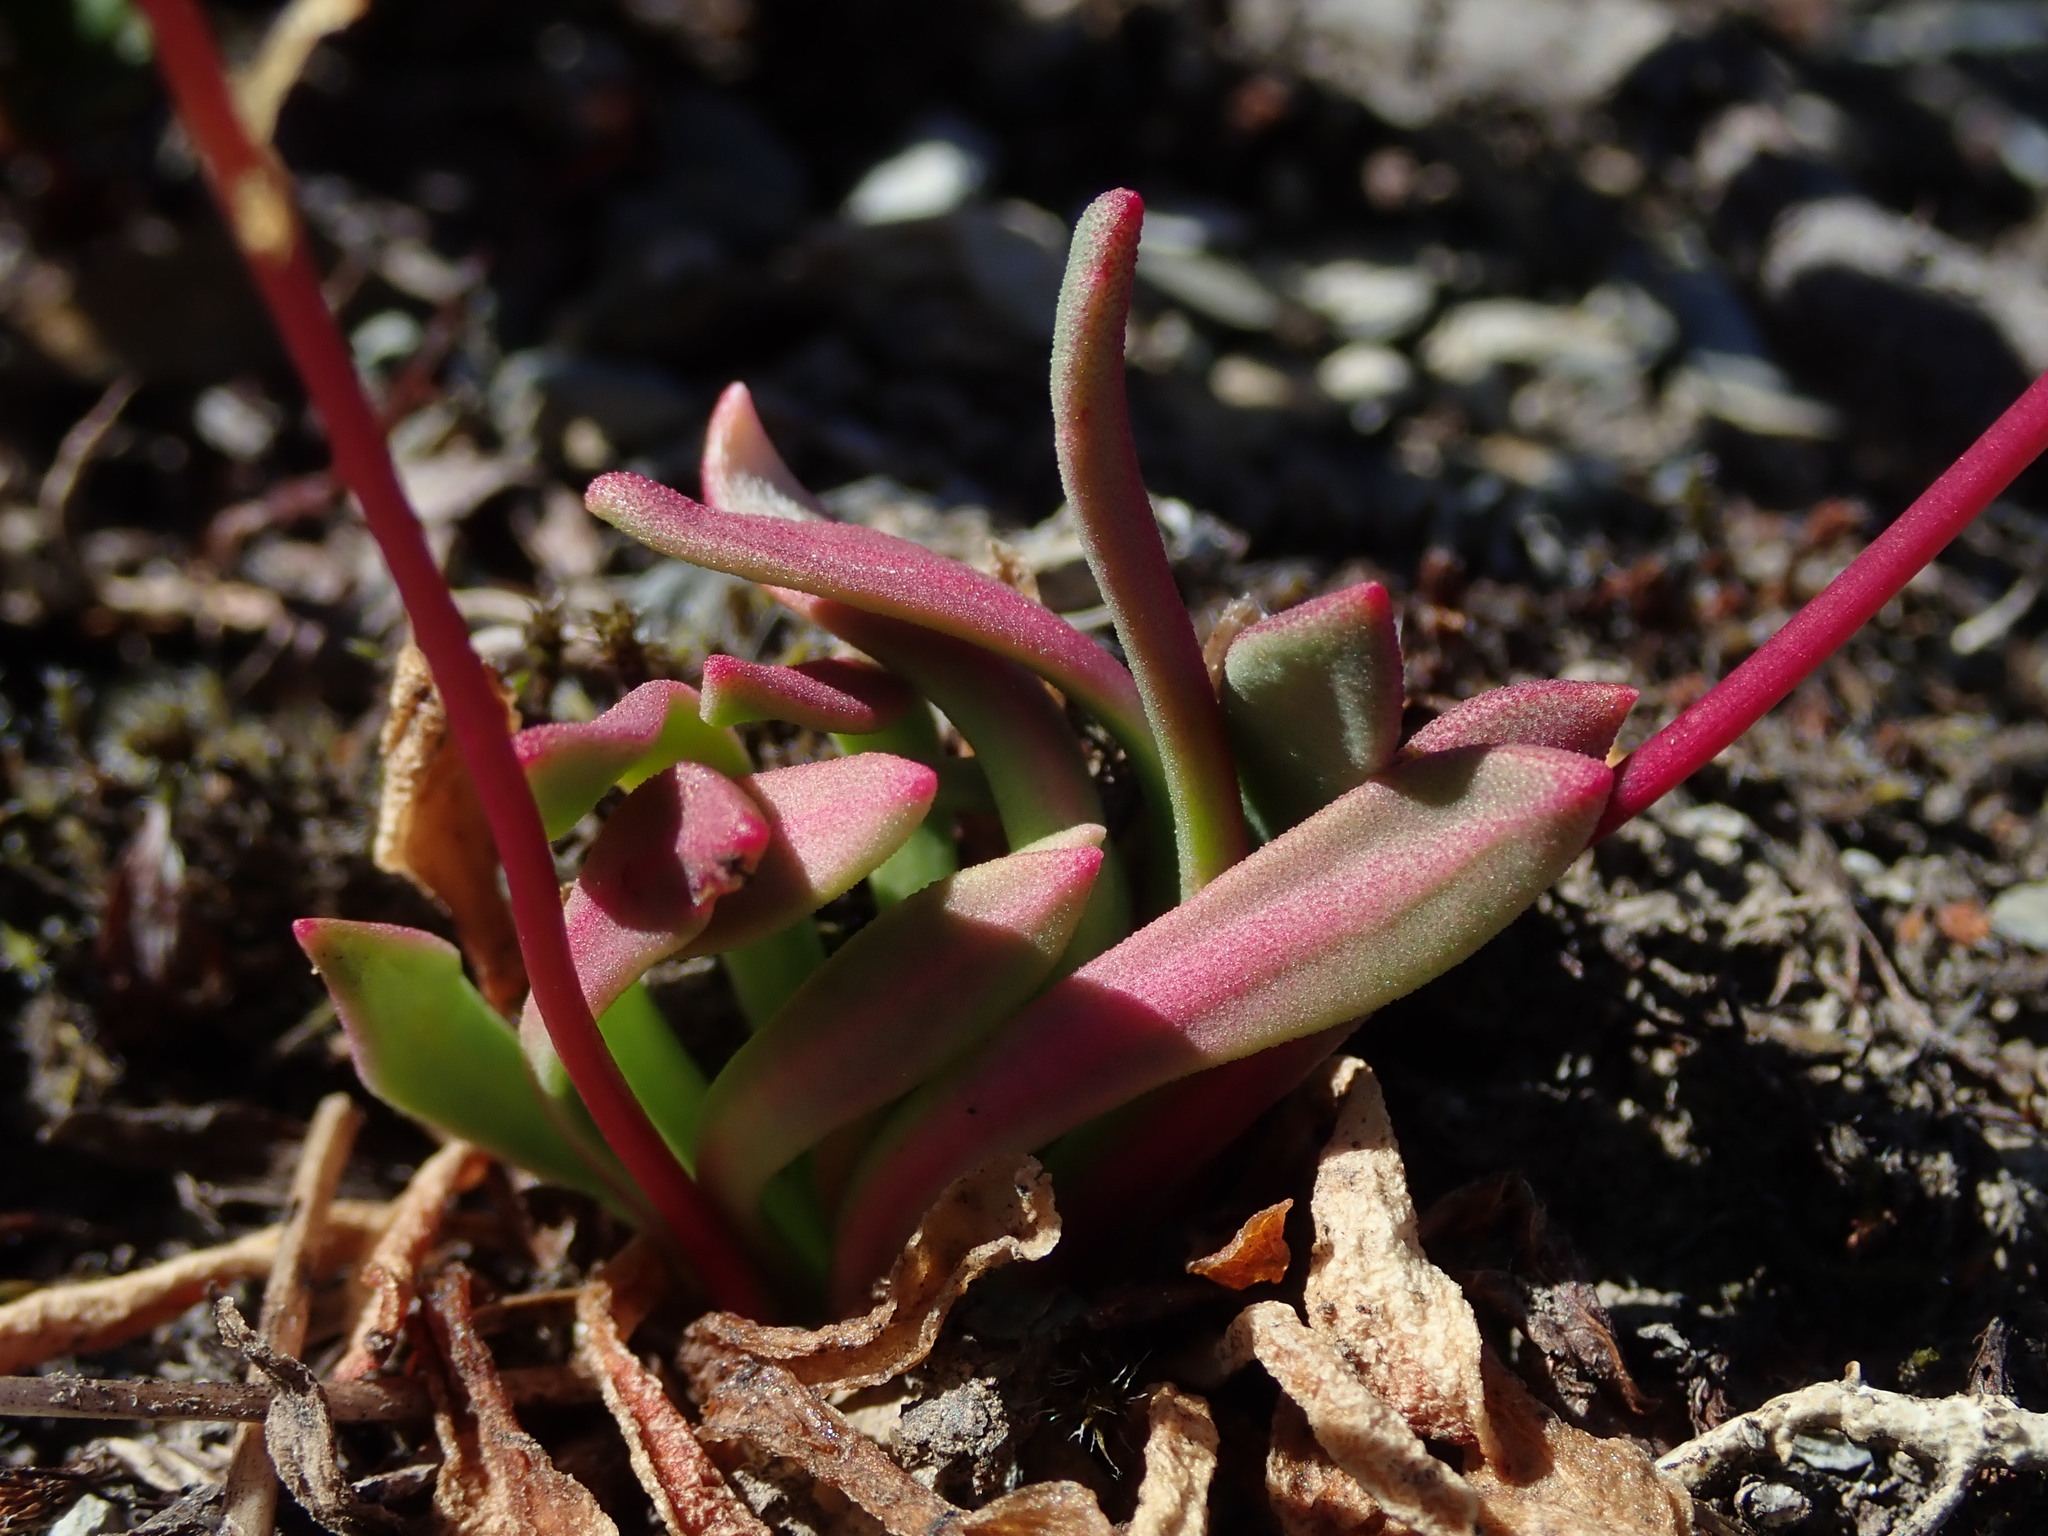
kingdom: Plantae
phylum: Tracheophyta
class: Magnoliopsida
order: Caryophyllales
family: Montiaceae
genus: Lewisia
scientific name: Lewisia columbiana
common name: Columbia lewisia
